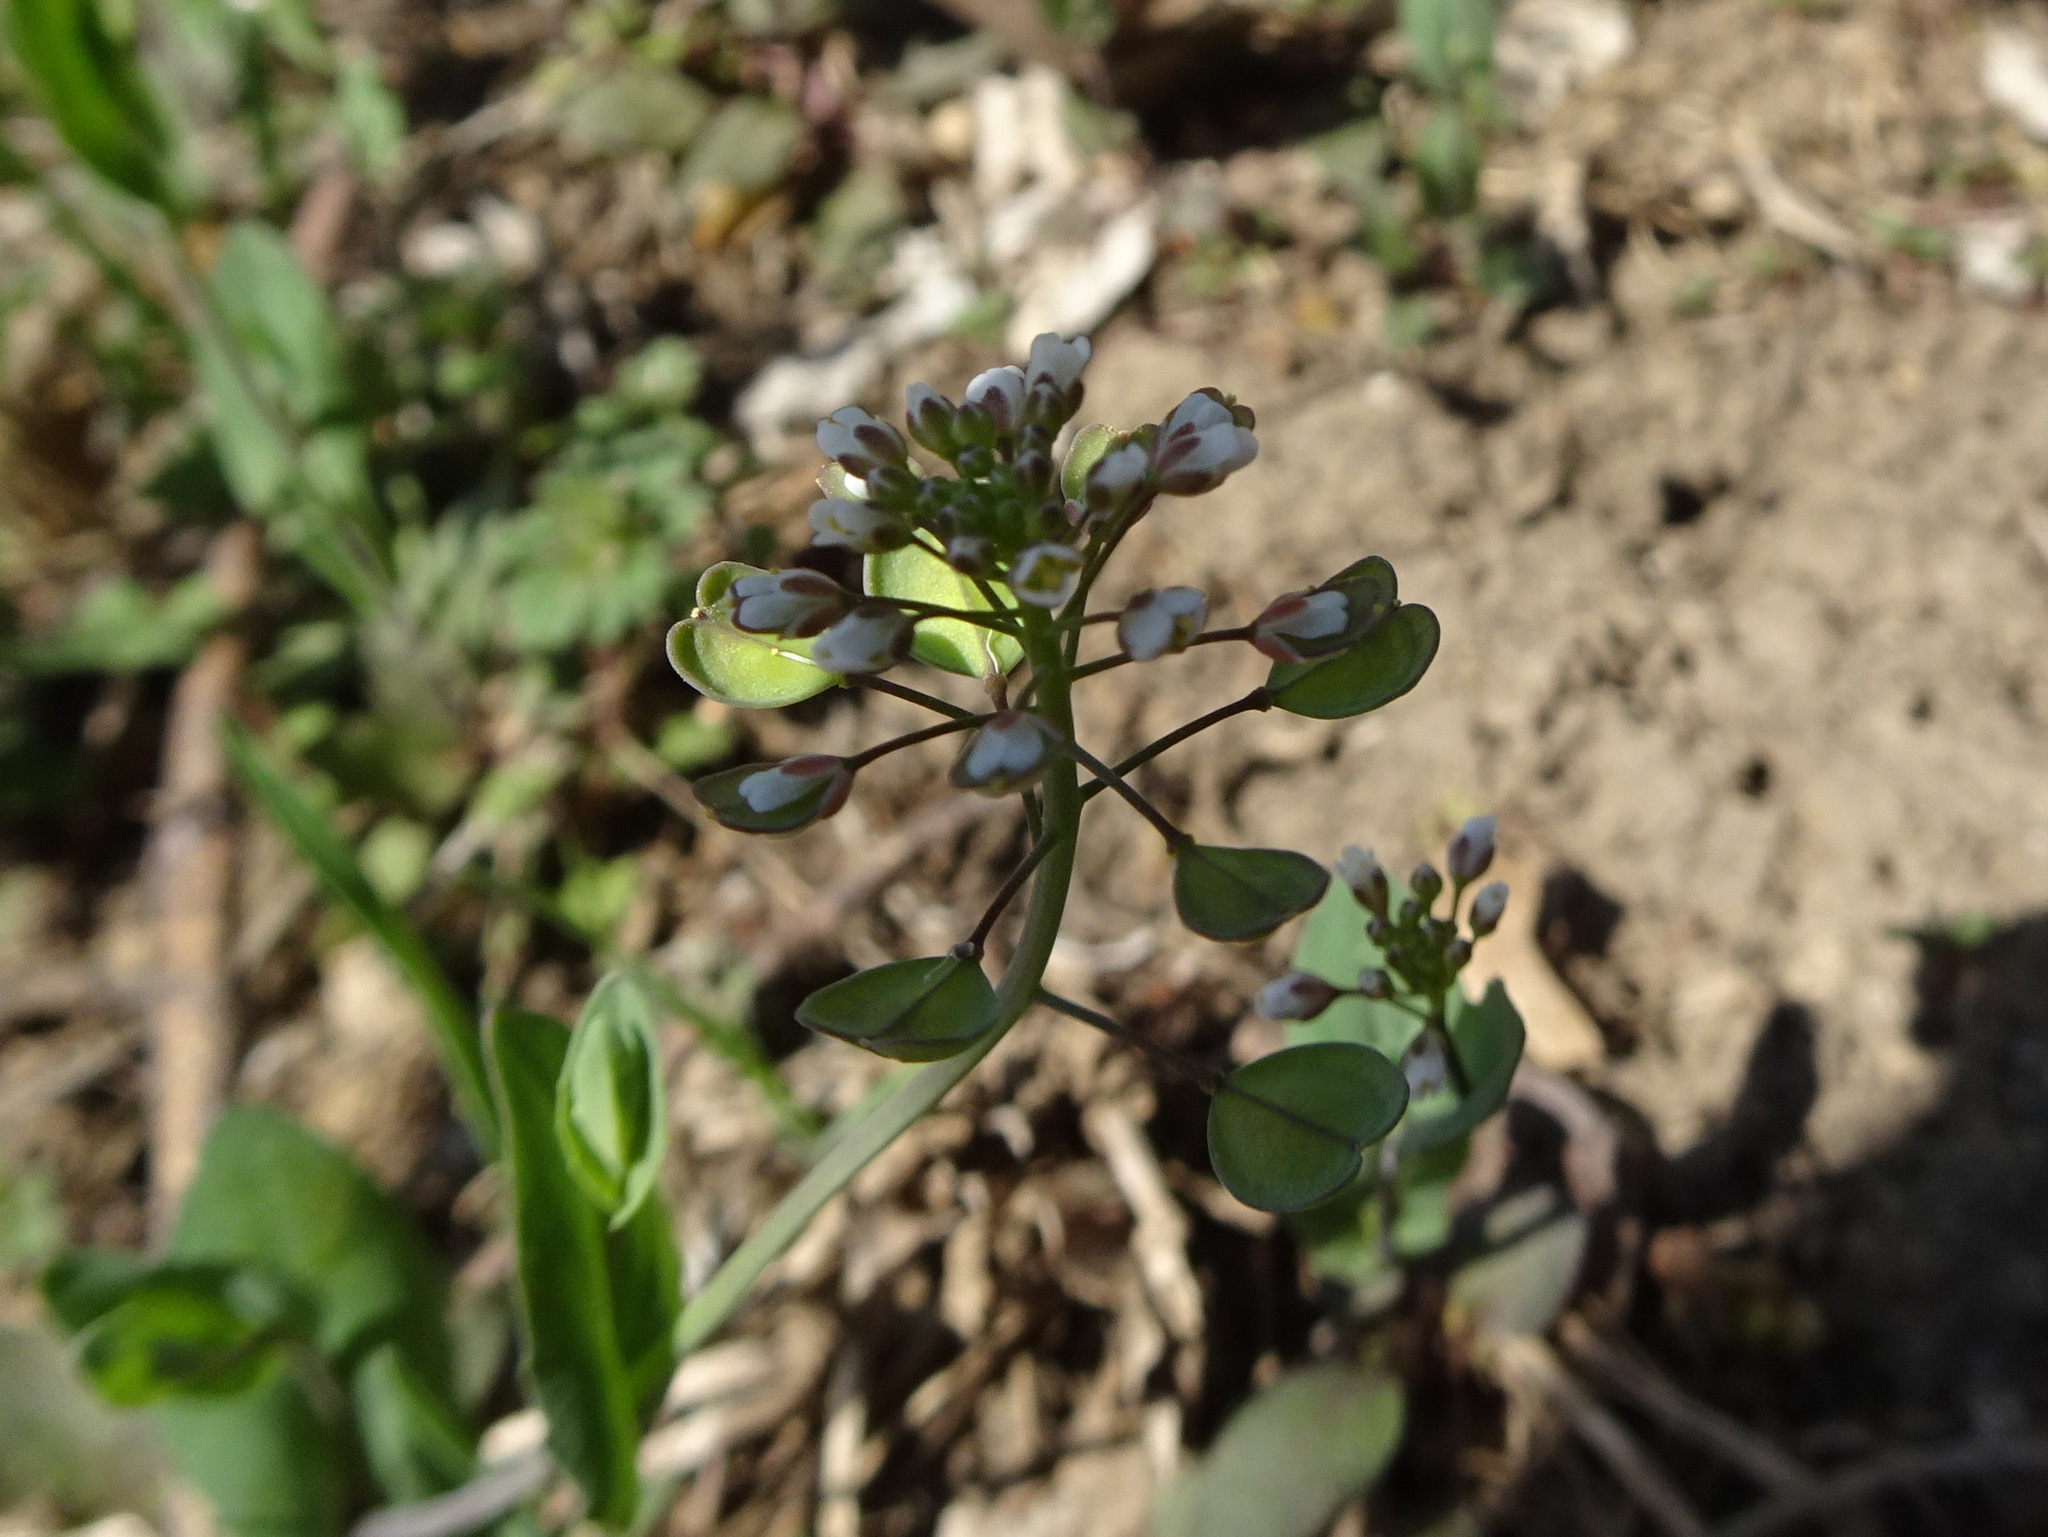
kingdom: Plantae
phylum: Tracheophyta
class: Magnoliopsida
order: Brassicales
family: Brassicaceae
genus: Noccaea
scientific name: Noccaea perfoliata
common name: Perfoliate pennycress
